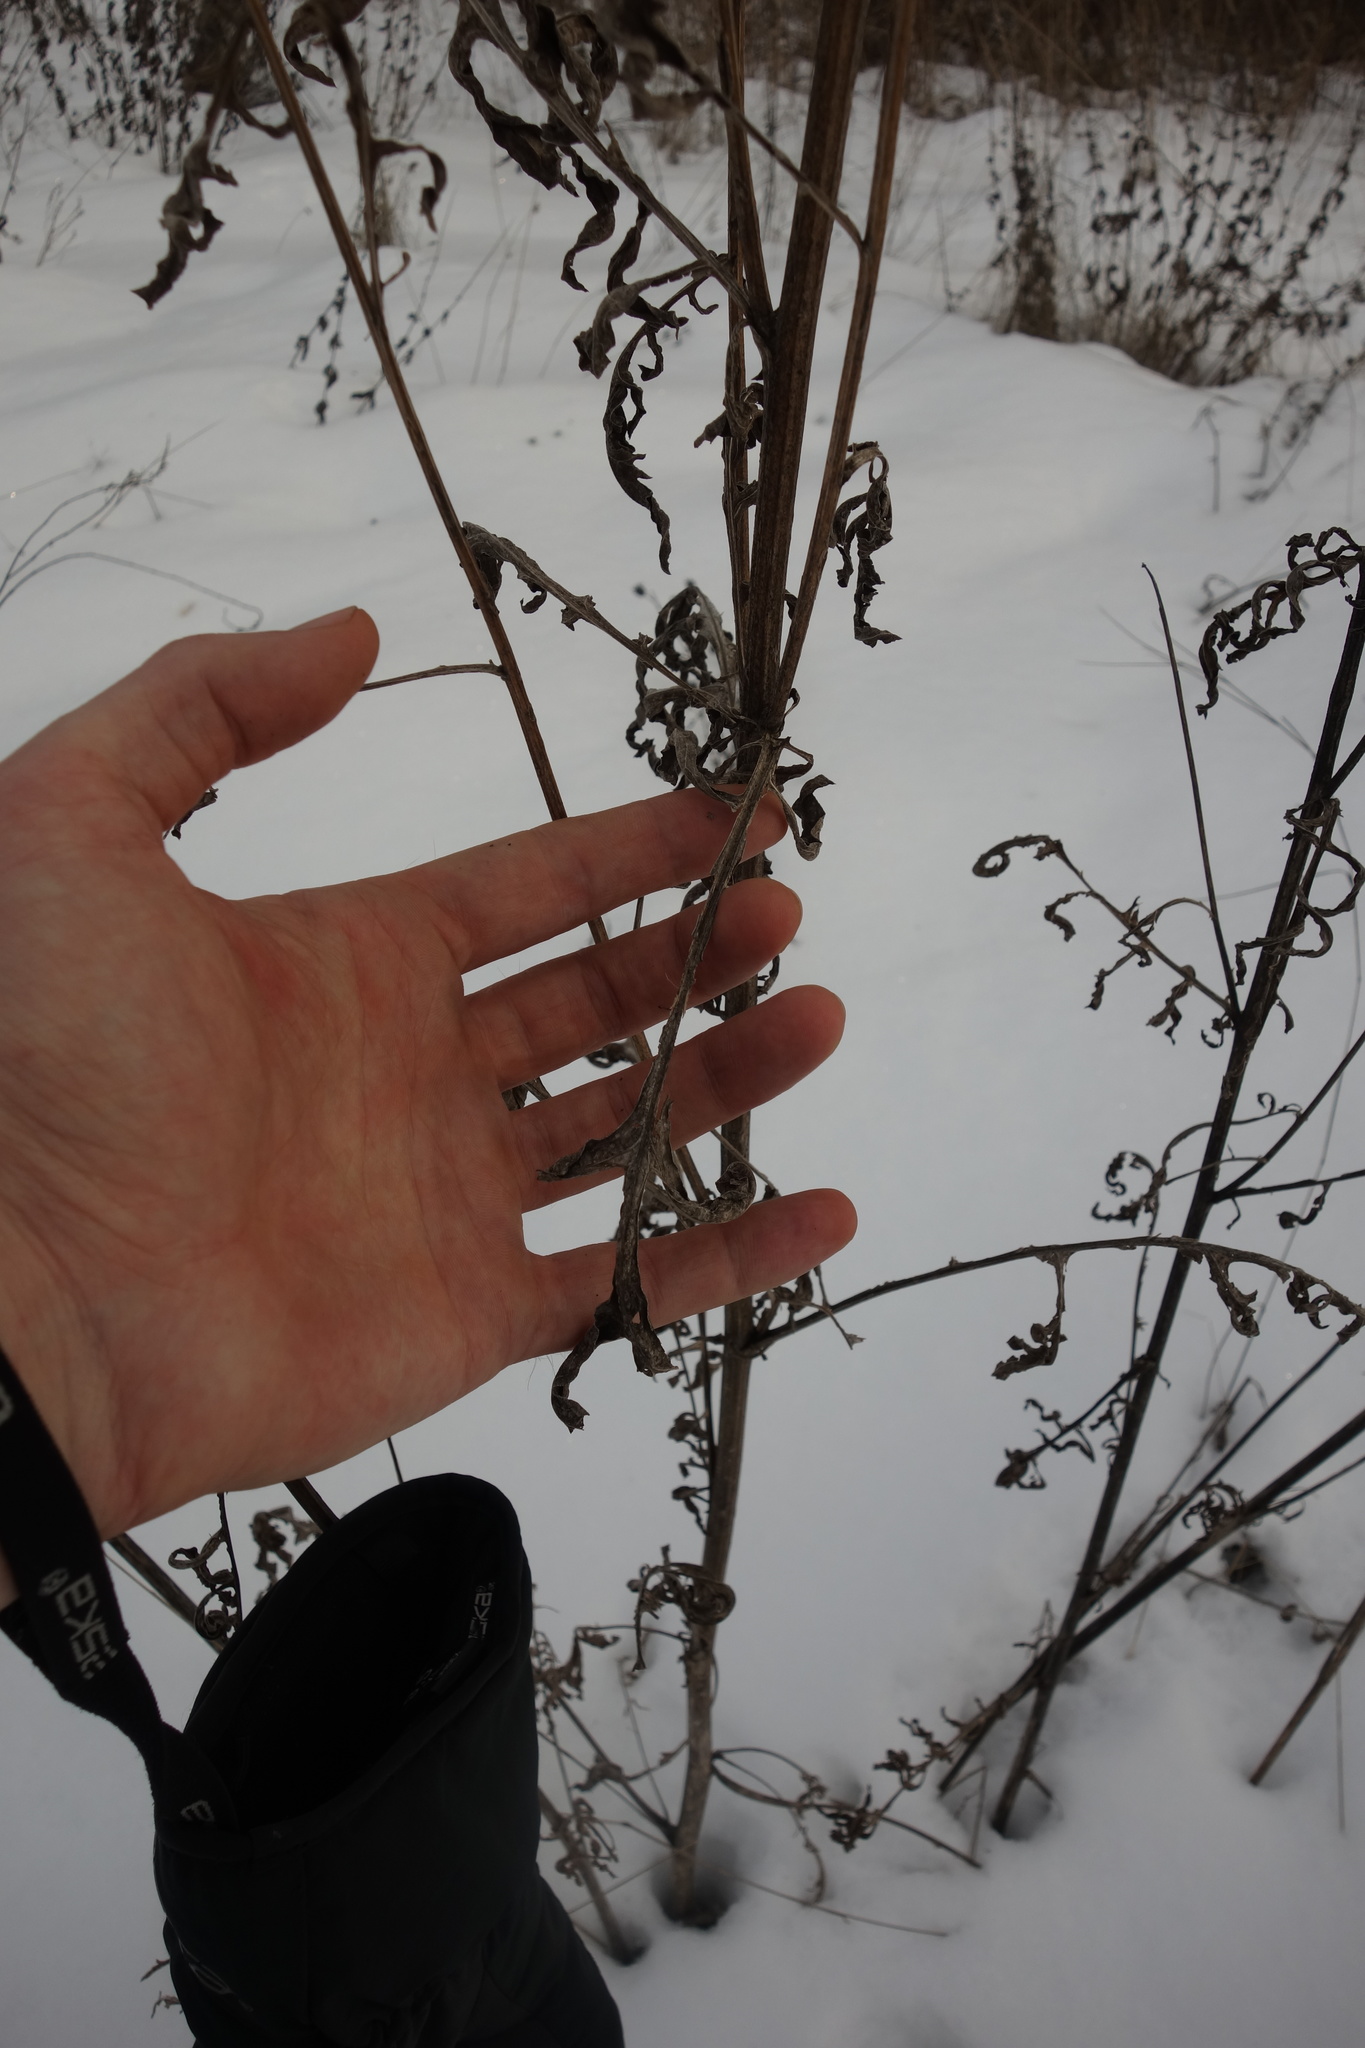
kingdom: Plantae
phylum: Tracheophyta
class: Magnoliopsida
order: Asterales
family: Asteraceae
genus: Centaurea
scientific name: Centaurea scabiosa
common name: Greater knapweed
